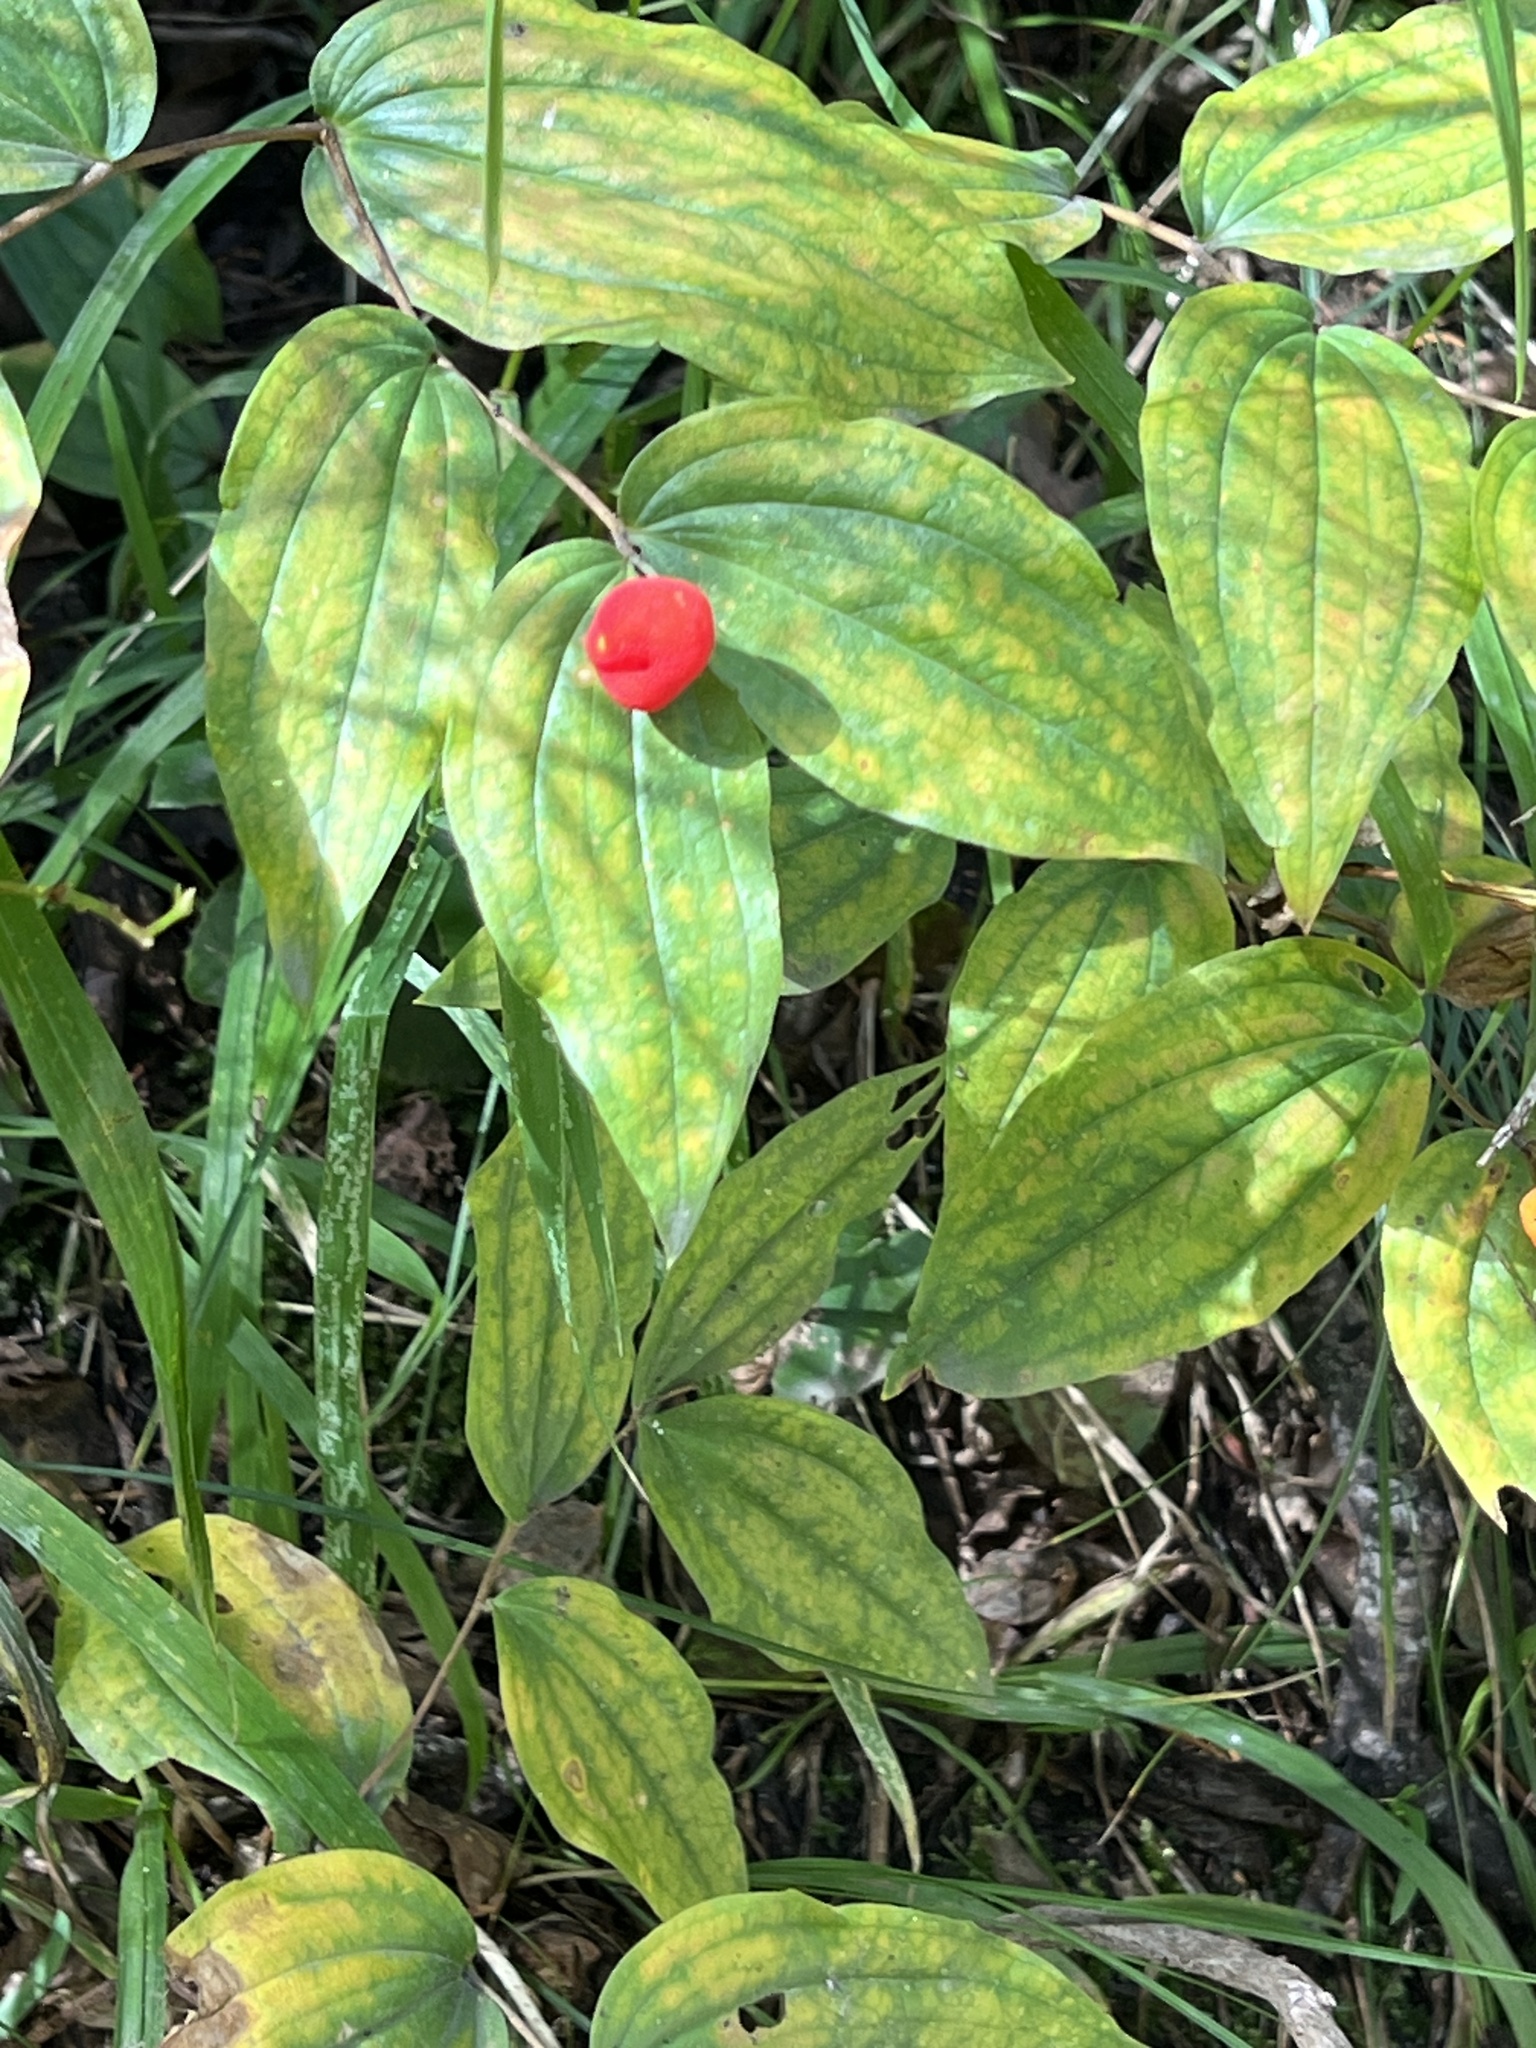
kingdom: Plantae
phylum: Tracheophyta
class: Liliopsida
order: Liliales
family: Liliaceae
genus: Prosartes
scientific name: Prosartes trachycarpa
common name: Rough-fruit fairy-bells
